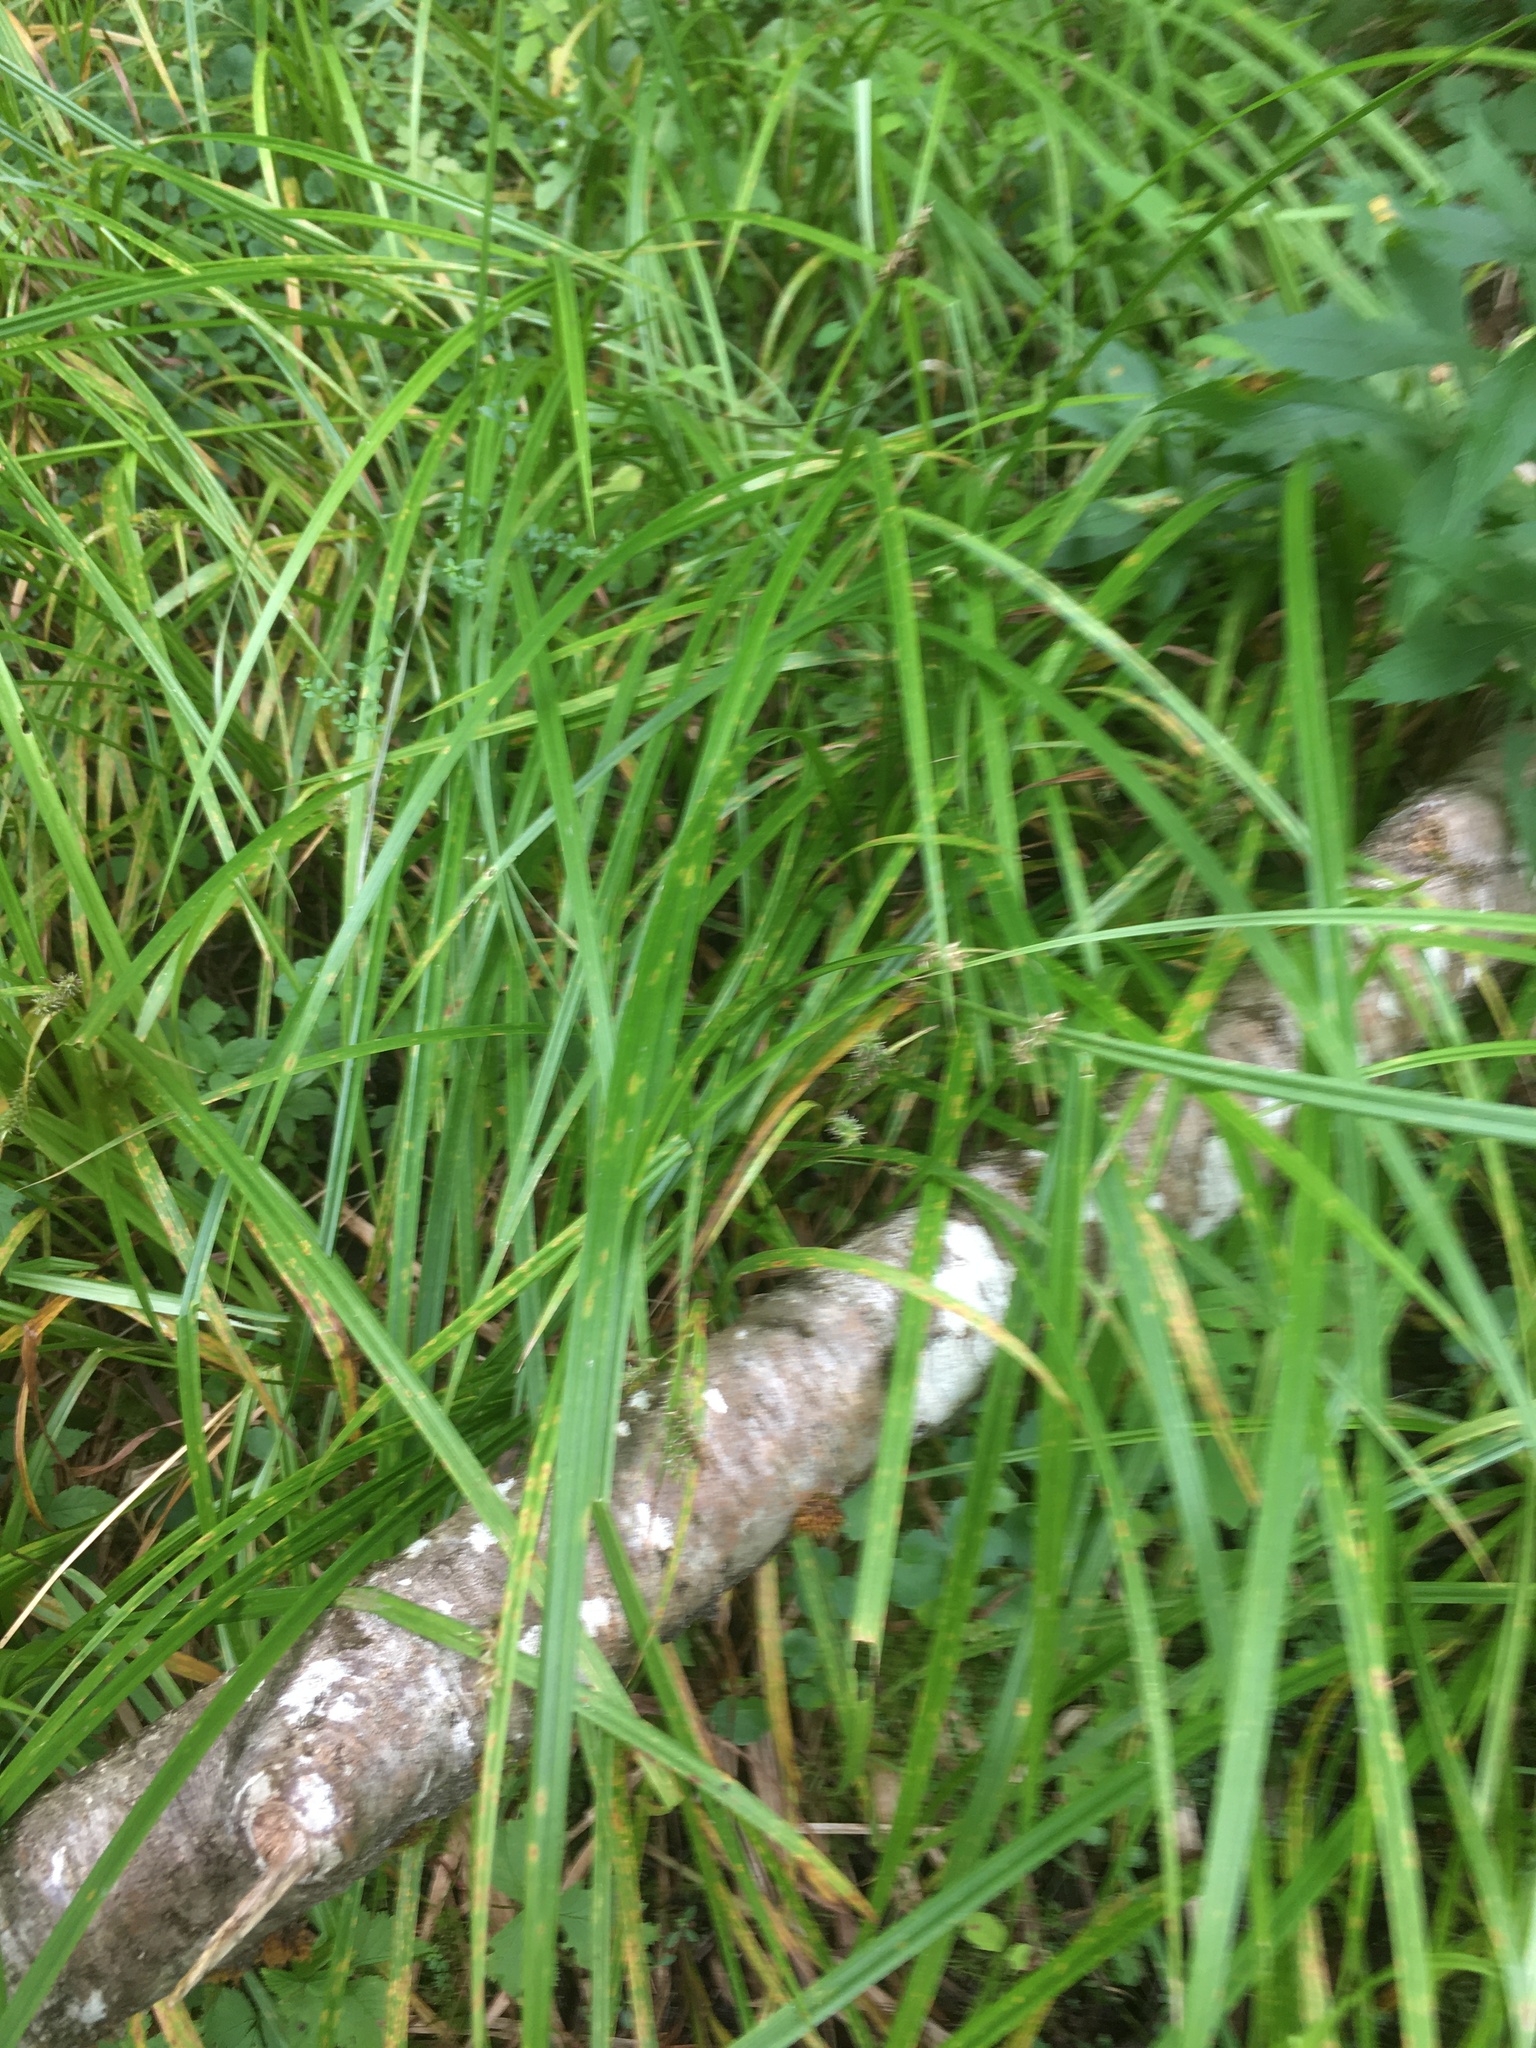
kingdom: Plantae
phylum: Tracheophyta
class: Liliopsida
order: Poales
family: Cyperaceae
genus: Carex
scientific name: Carex scabrata
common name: Eastern rough sedge
